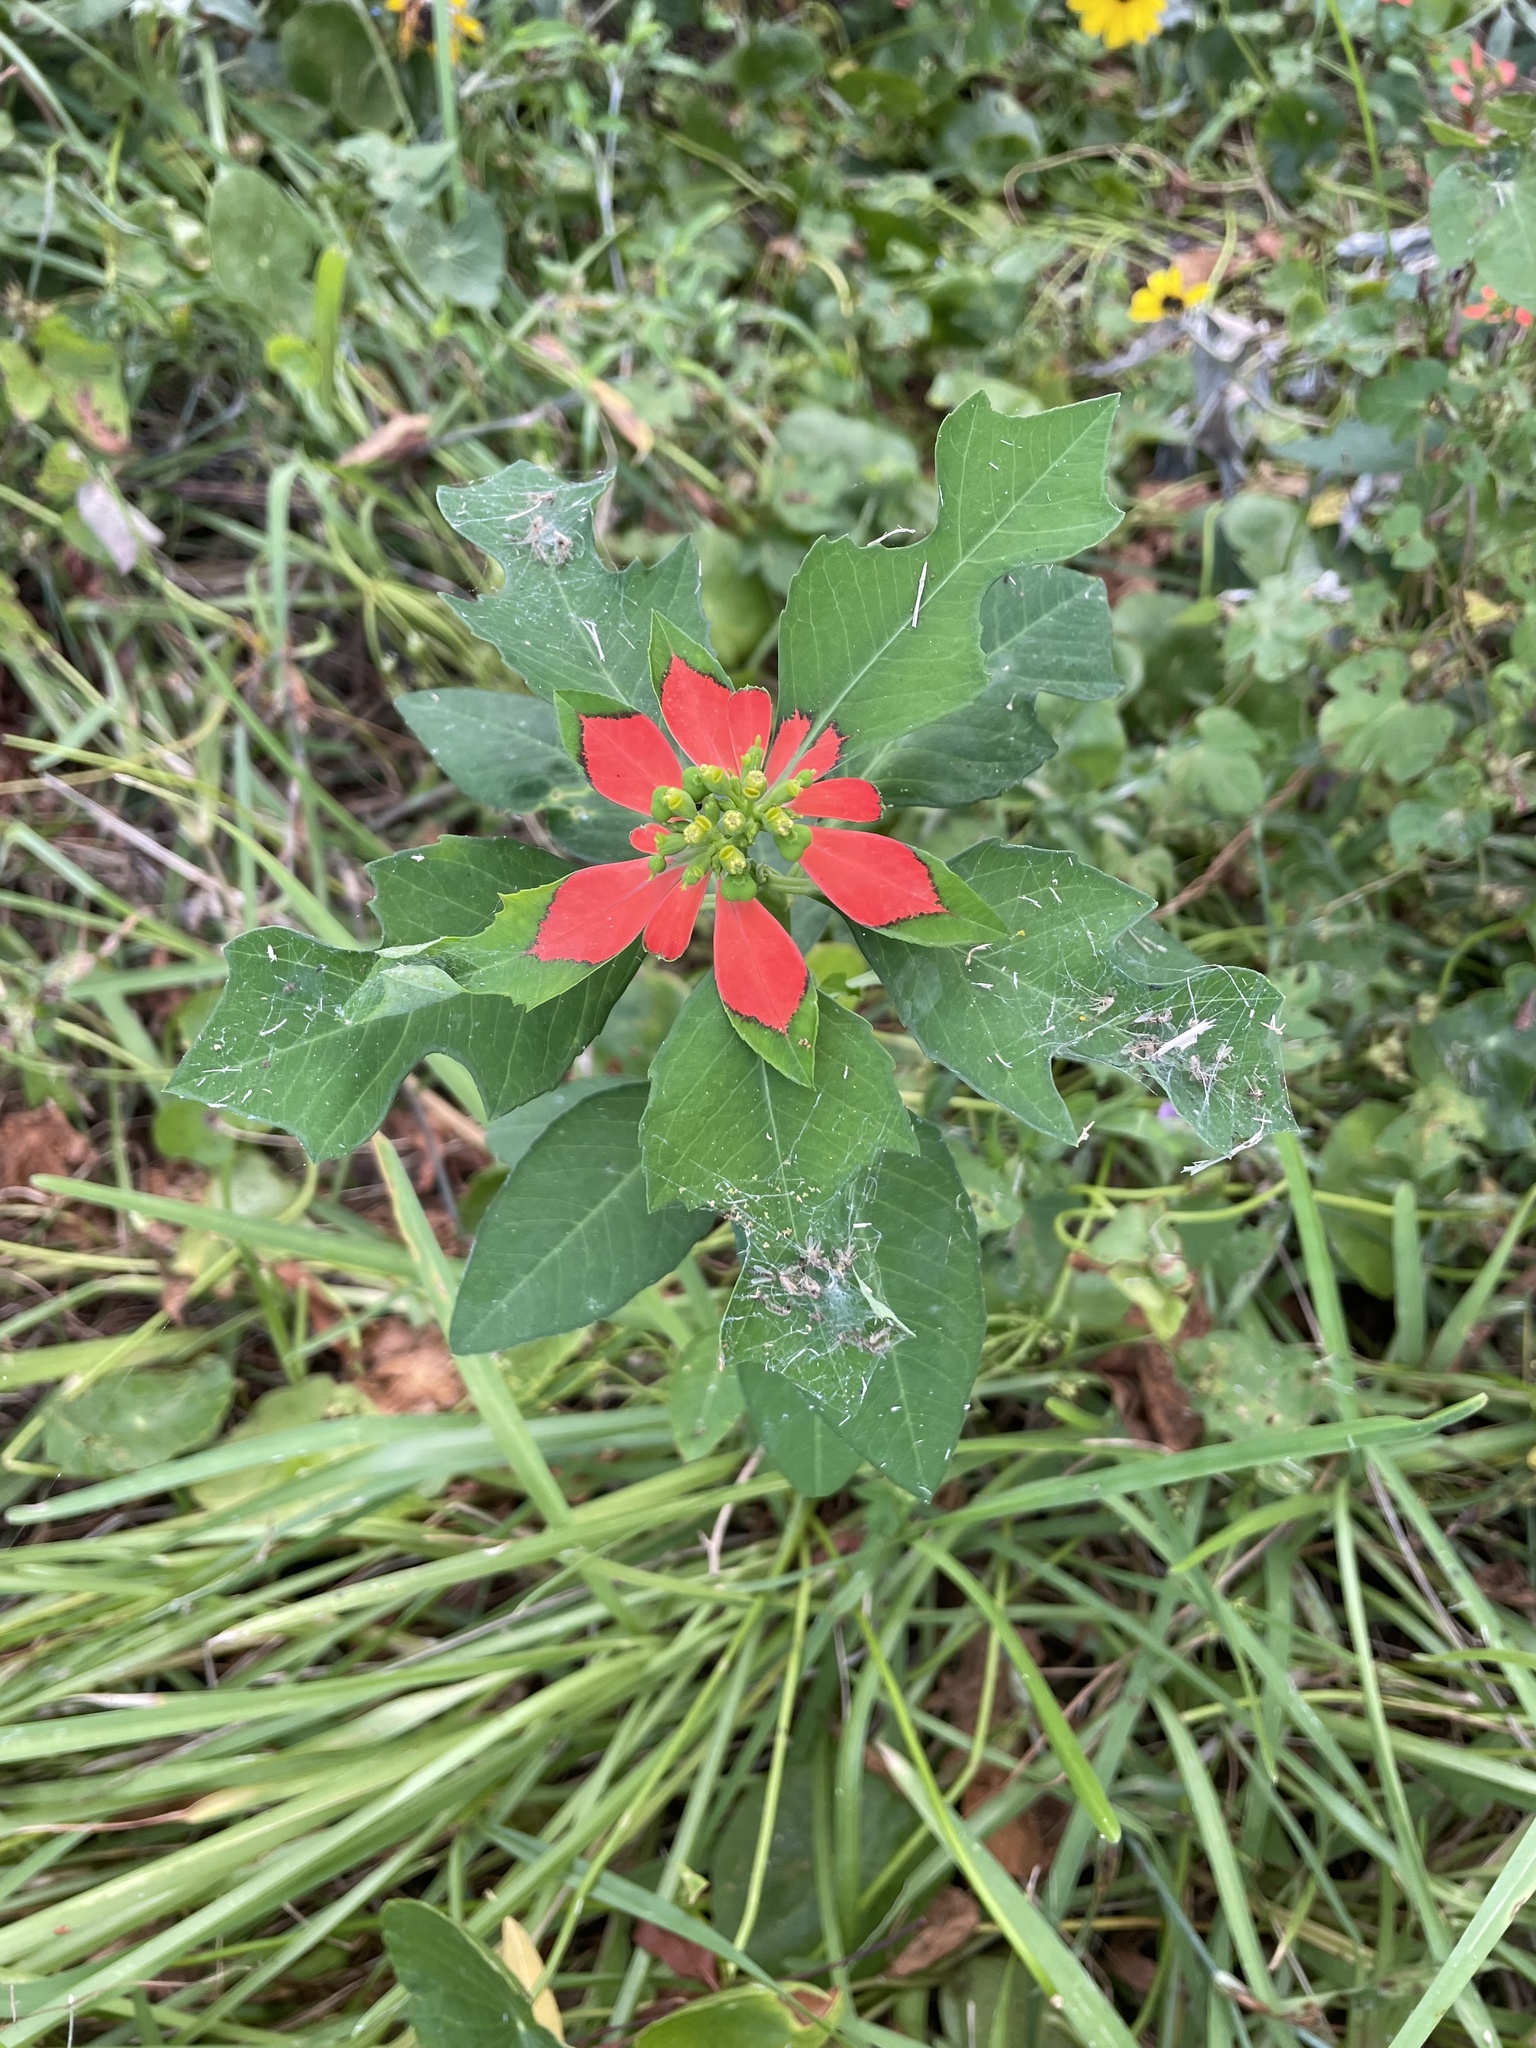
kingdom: Plantae
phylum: Tracheophyta
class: Magnoliopsida
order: Malpighiales
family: Euphorbiaceae
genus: Euphorbia
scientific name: Euphorbia heterophylla
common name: Mexican fireplant
